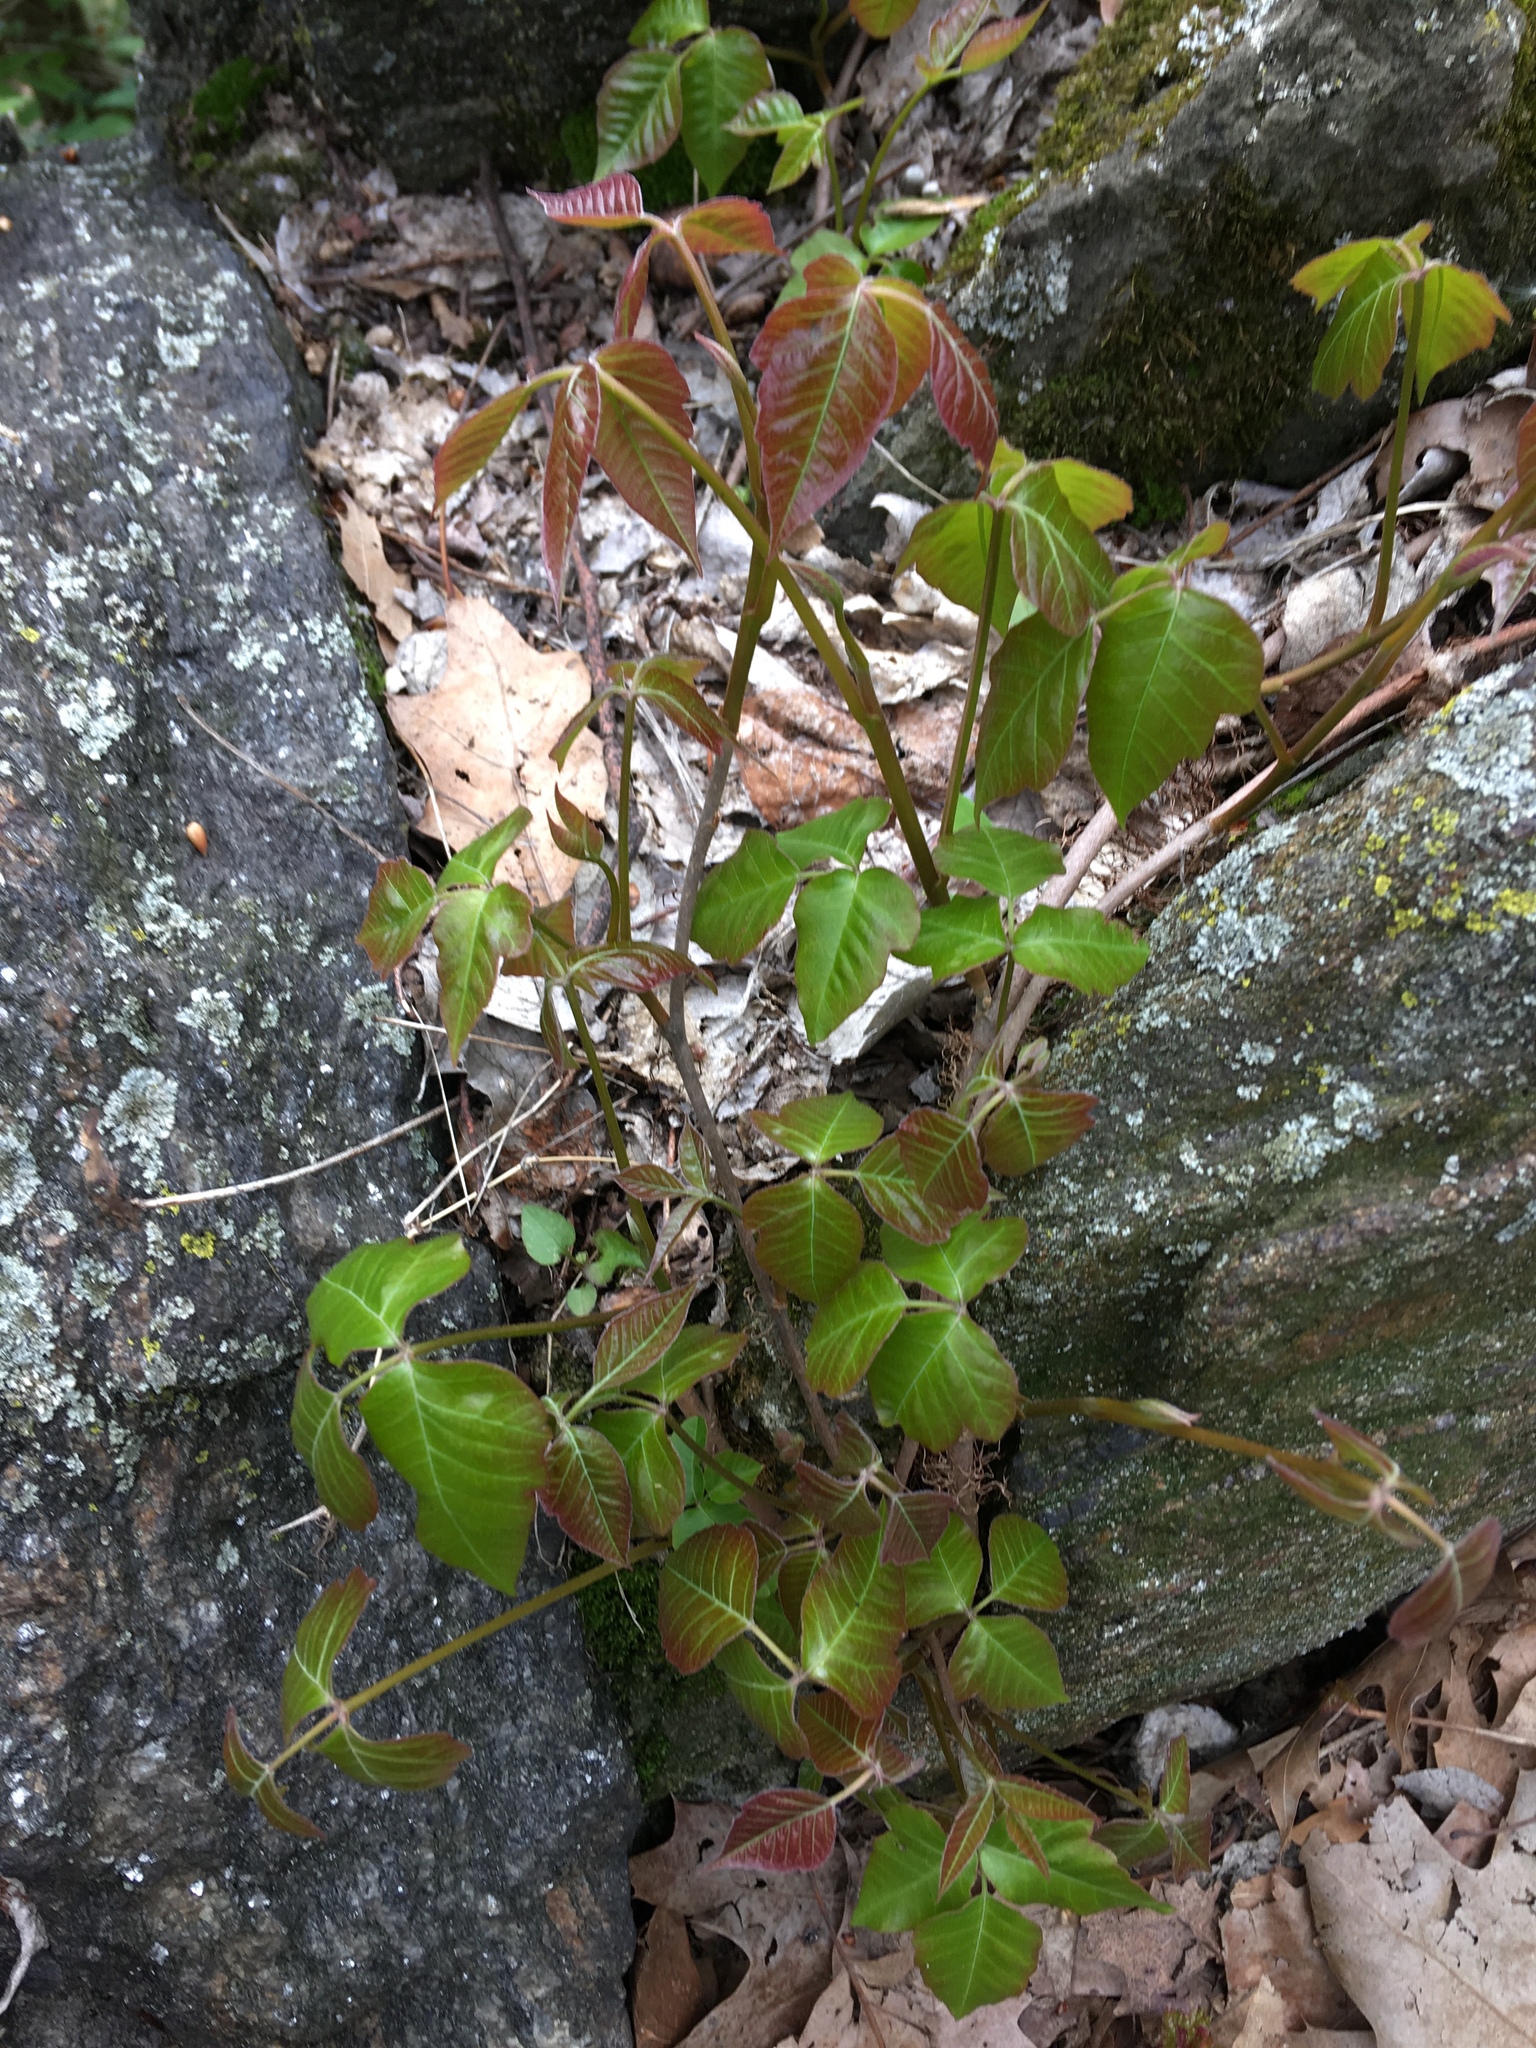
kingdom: Plantae
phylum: Tracheophyta
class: Magnoliopsida
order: Sapindales
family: Anacardiaceae
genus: Toxicodendron
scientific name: Toxicodendron radicans
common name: Poison ivy
